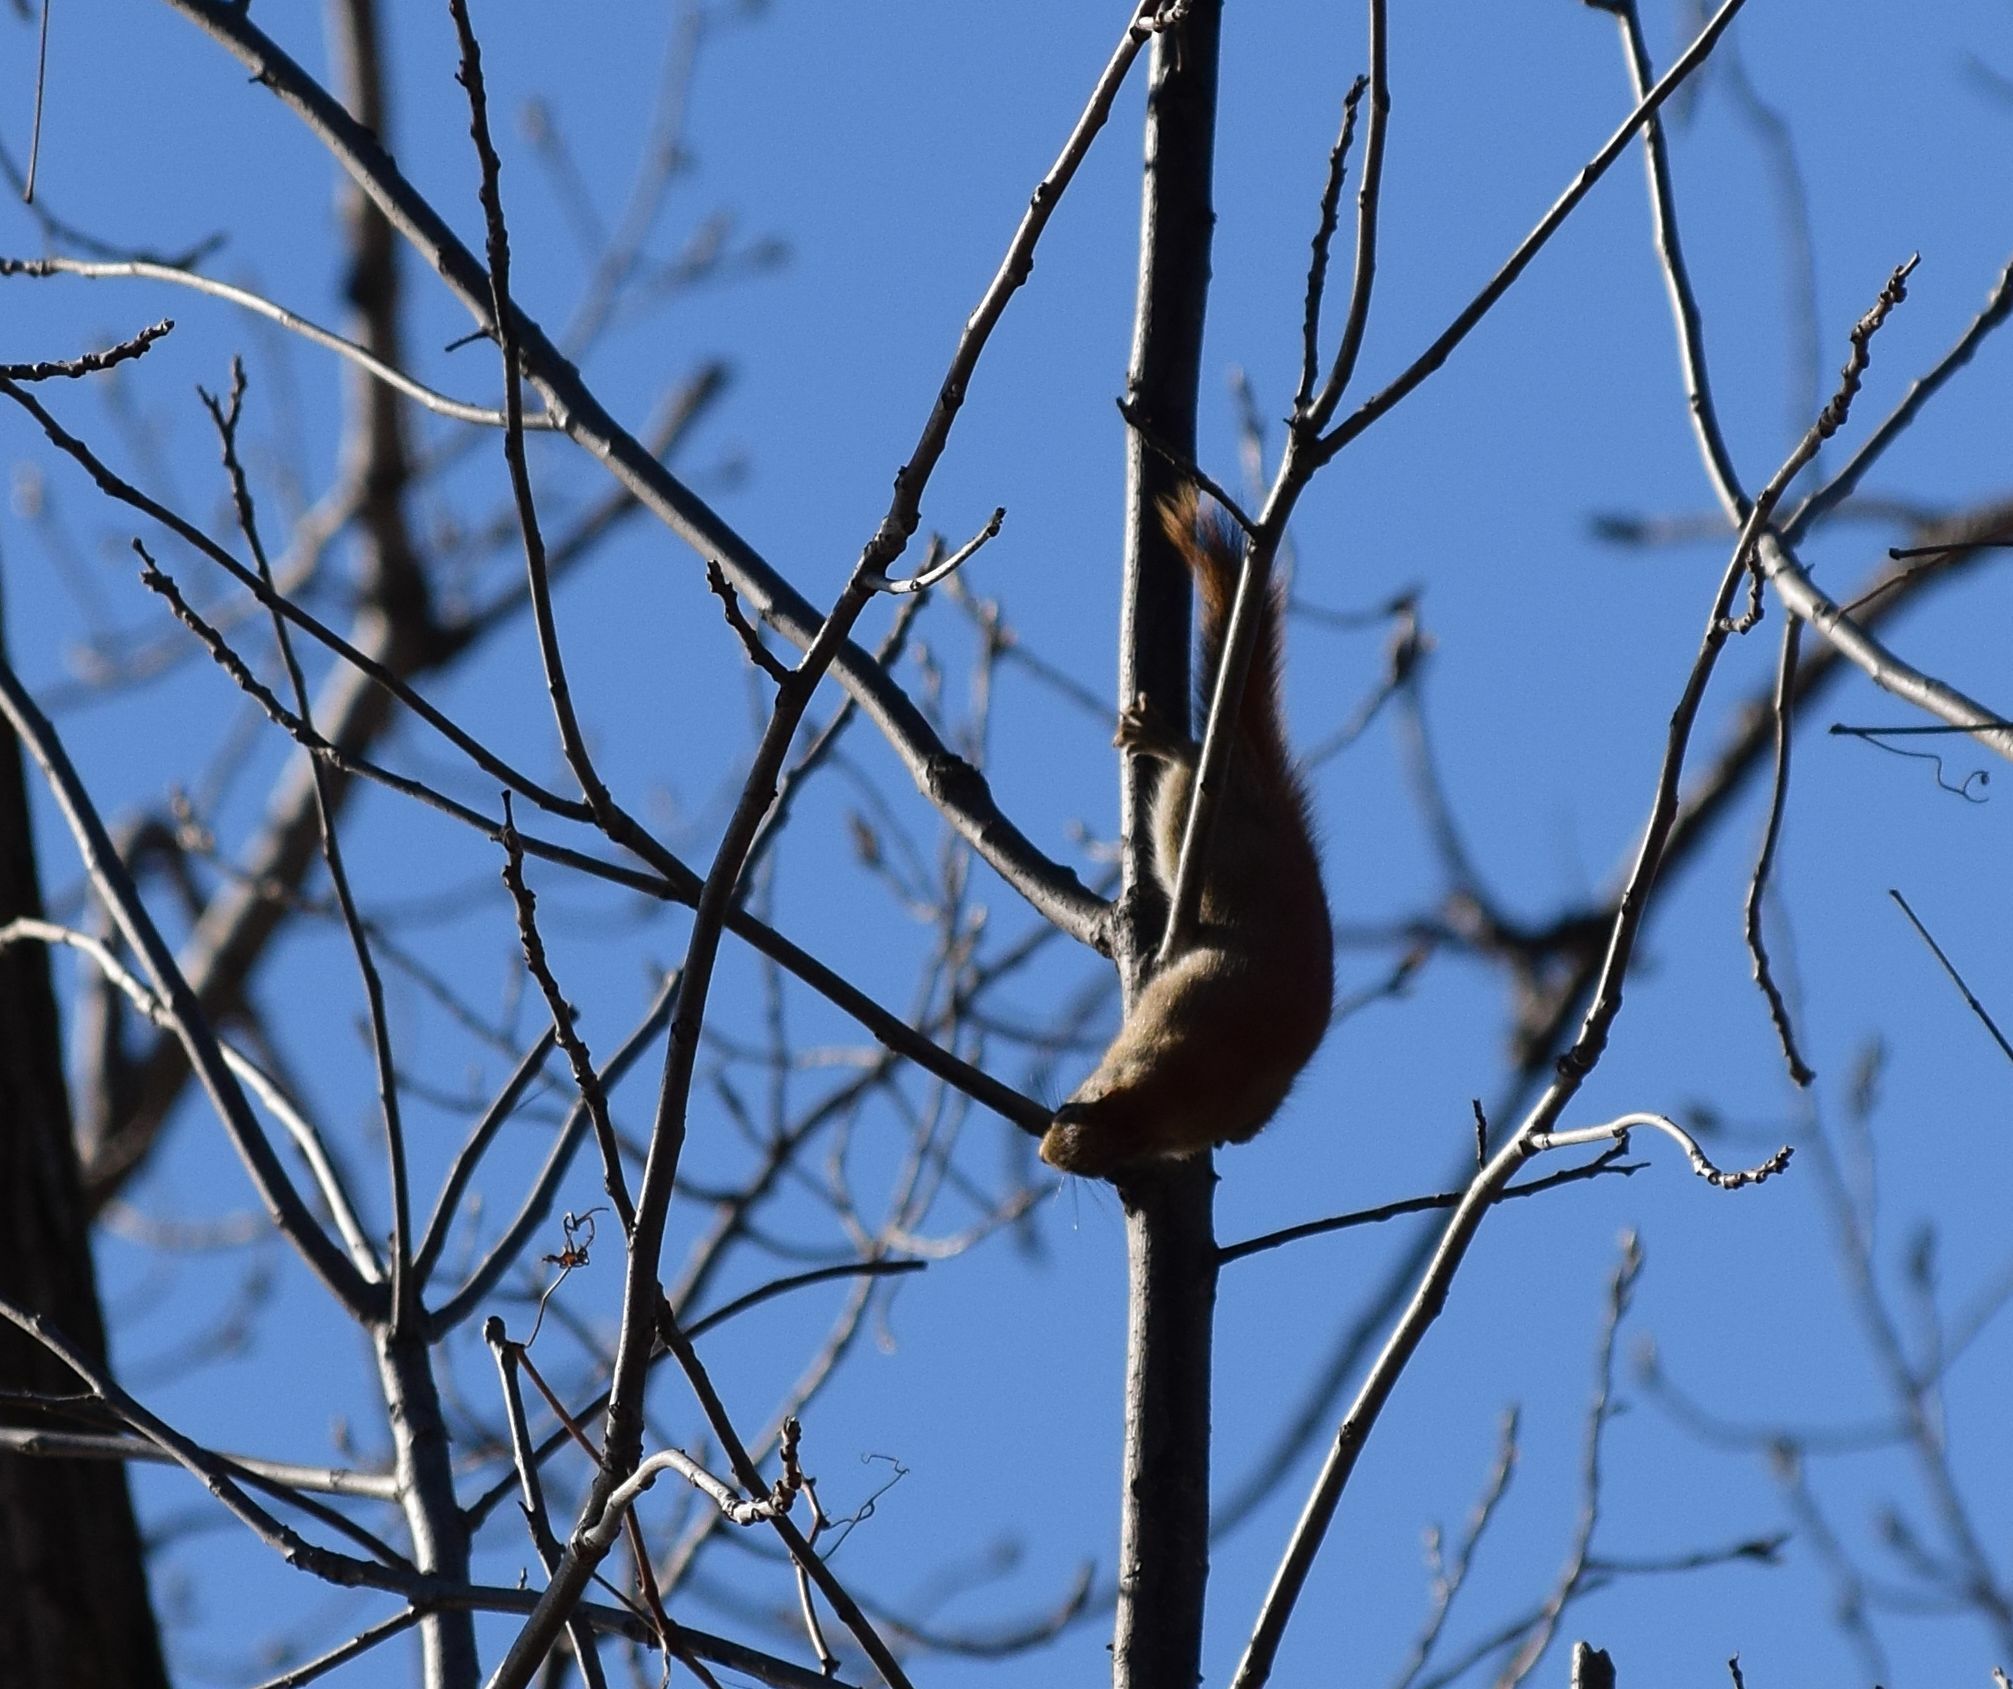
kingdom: Animalia
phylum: Chordata
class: Mammalia
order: Rodentia
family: Sciuridae
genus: Tamiasciurus
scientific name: Tamiasciurus hudsonicus
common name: Red squirrel
